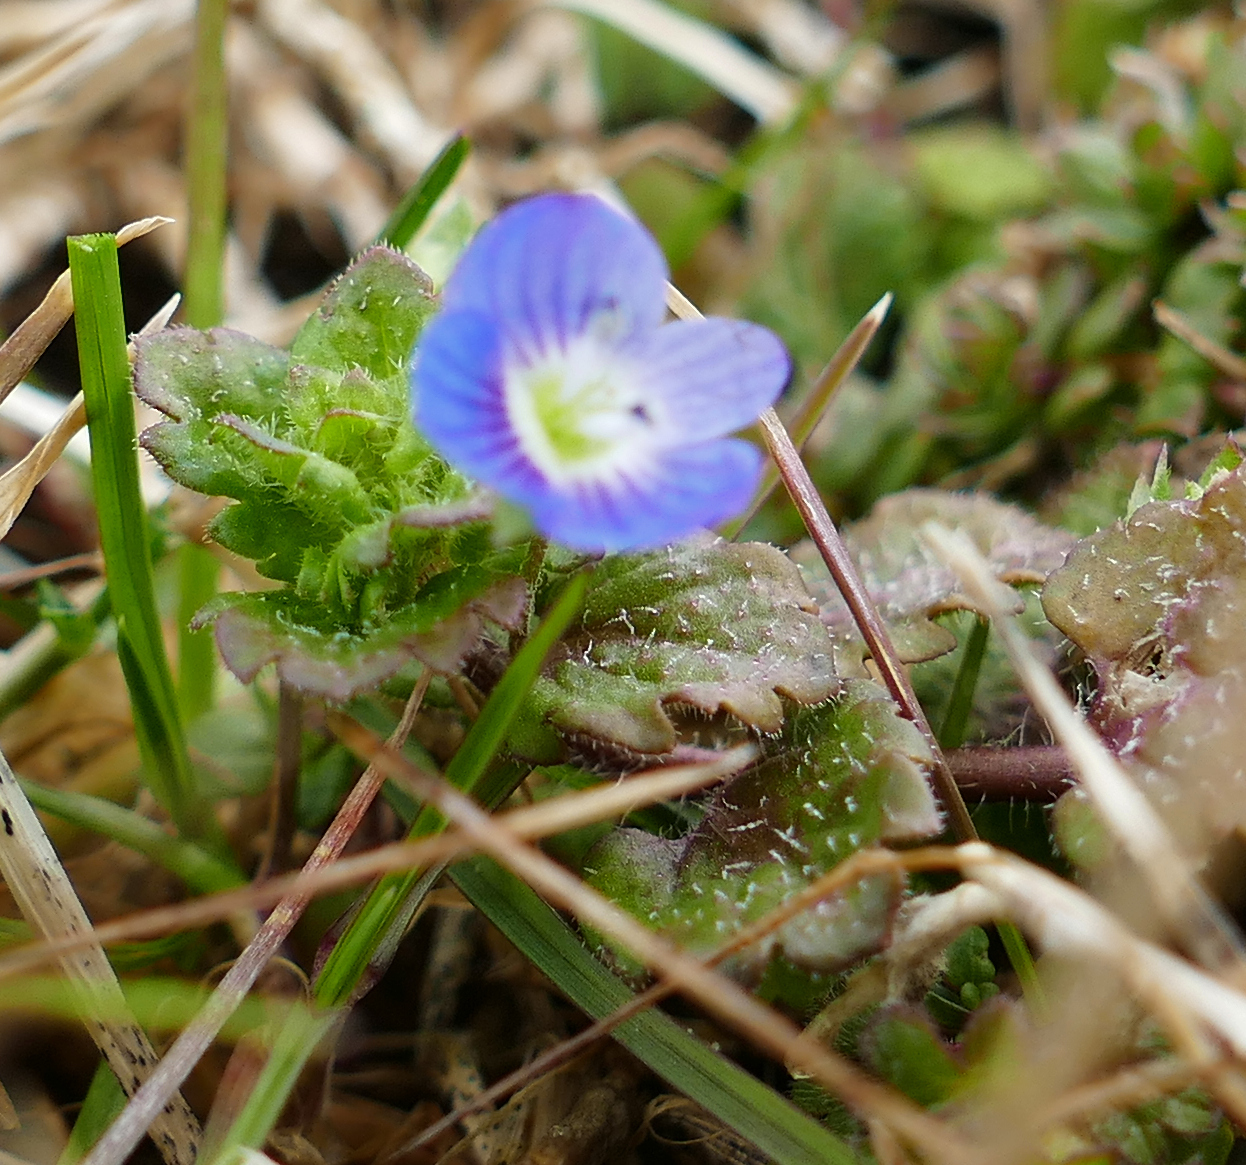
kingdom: Plantae
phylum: Tracheophyta
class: Magnoliopsida
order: Lamiales
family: Plantaginaceae
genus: Veronica
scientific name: Veronica persica
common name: Common field-speedwell
